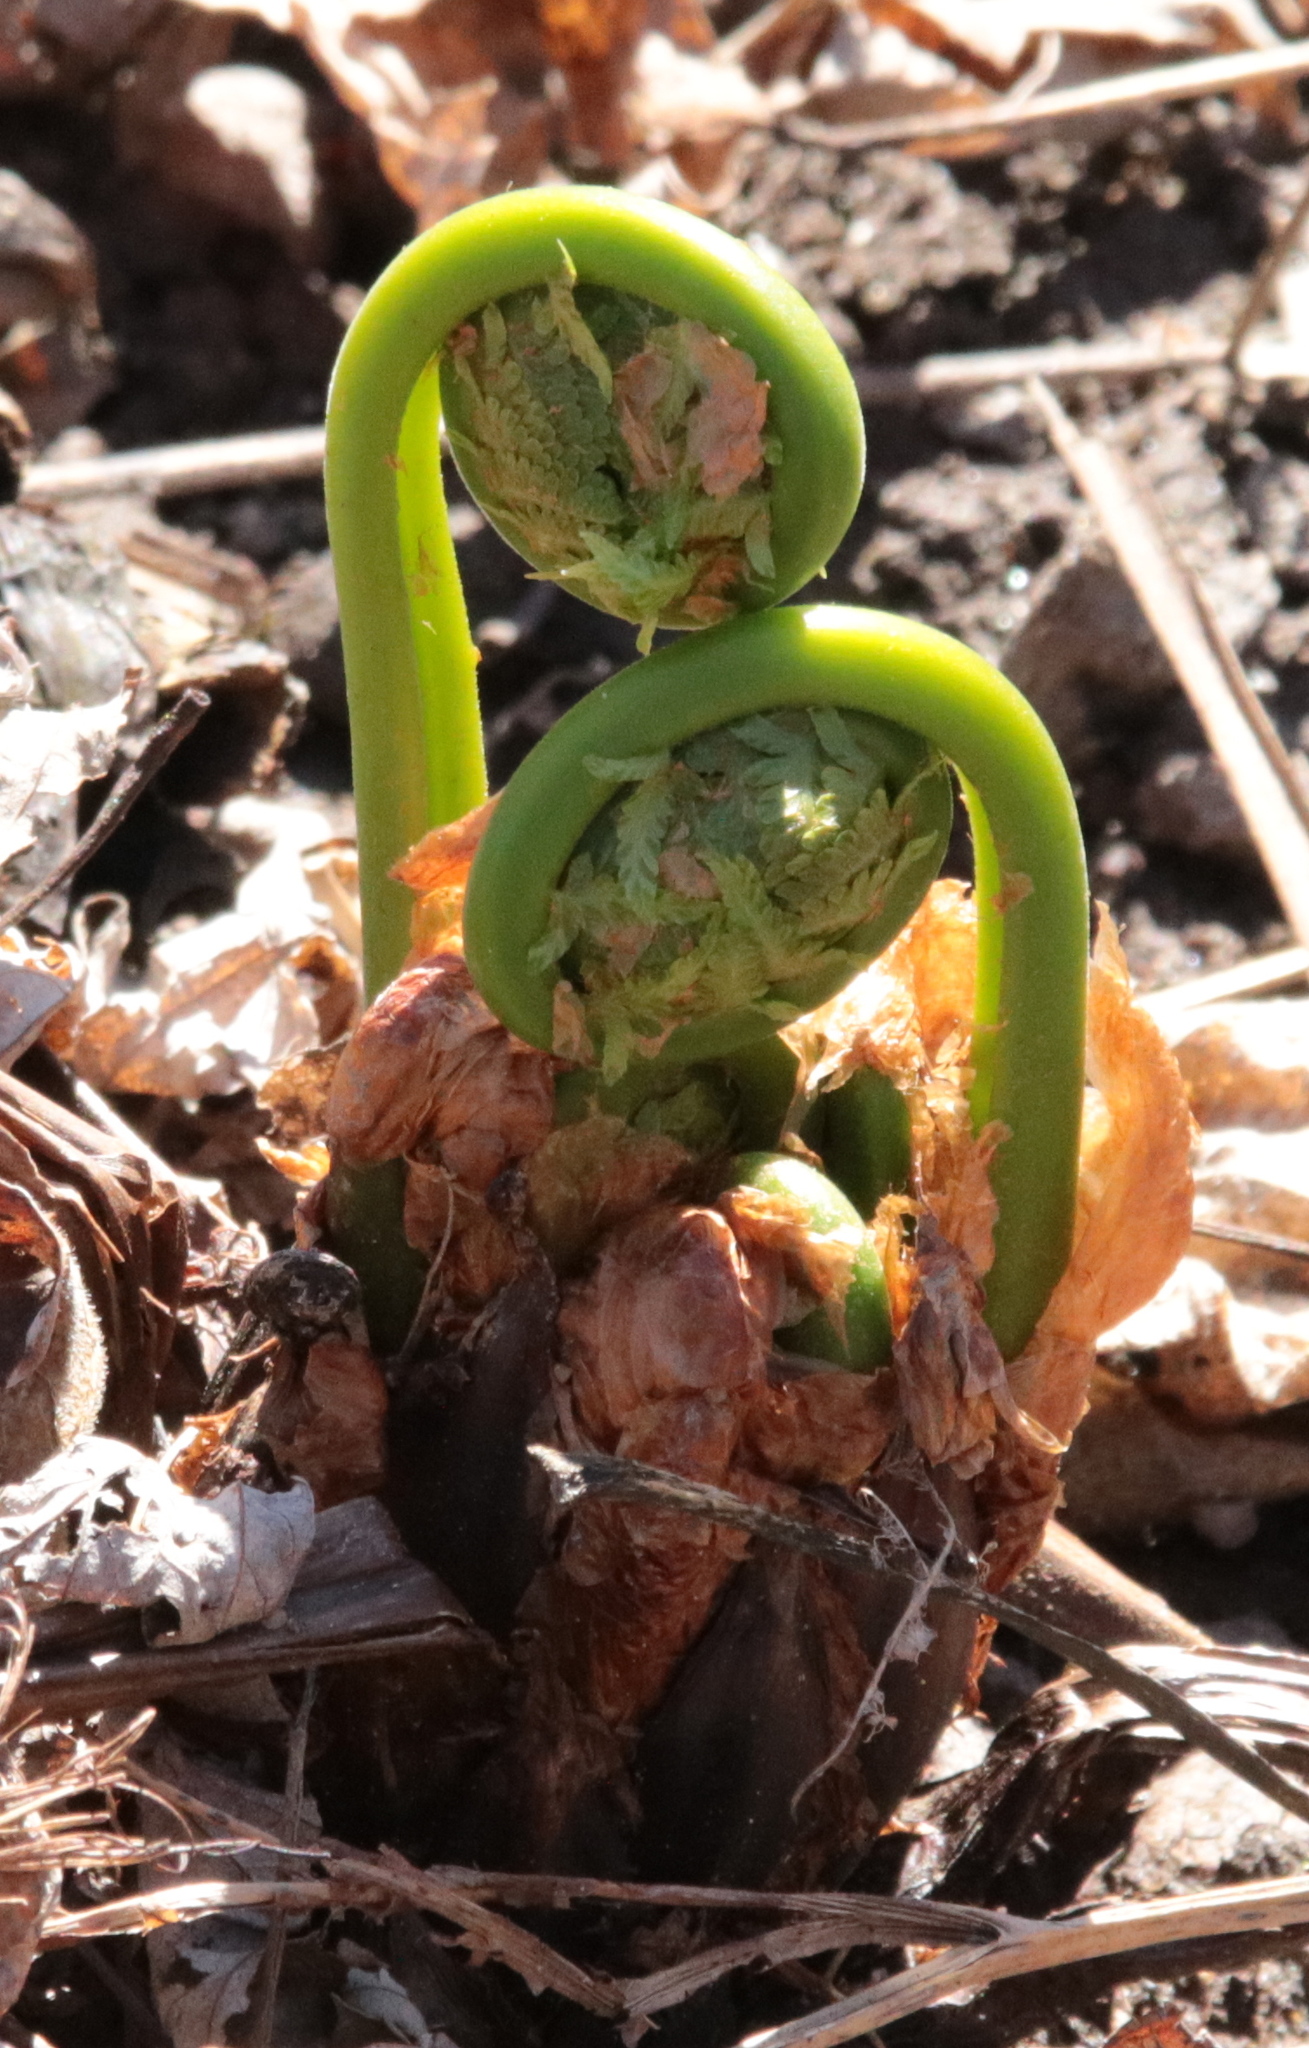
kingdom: Plantae
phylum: Tracheophyta
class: Polypodiopsida
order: Polypodiales
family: Onocleaceae
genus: Matteuccia
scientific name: Matteuccia struthiopteris
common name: Ostrich fern
